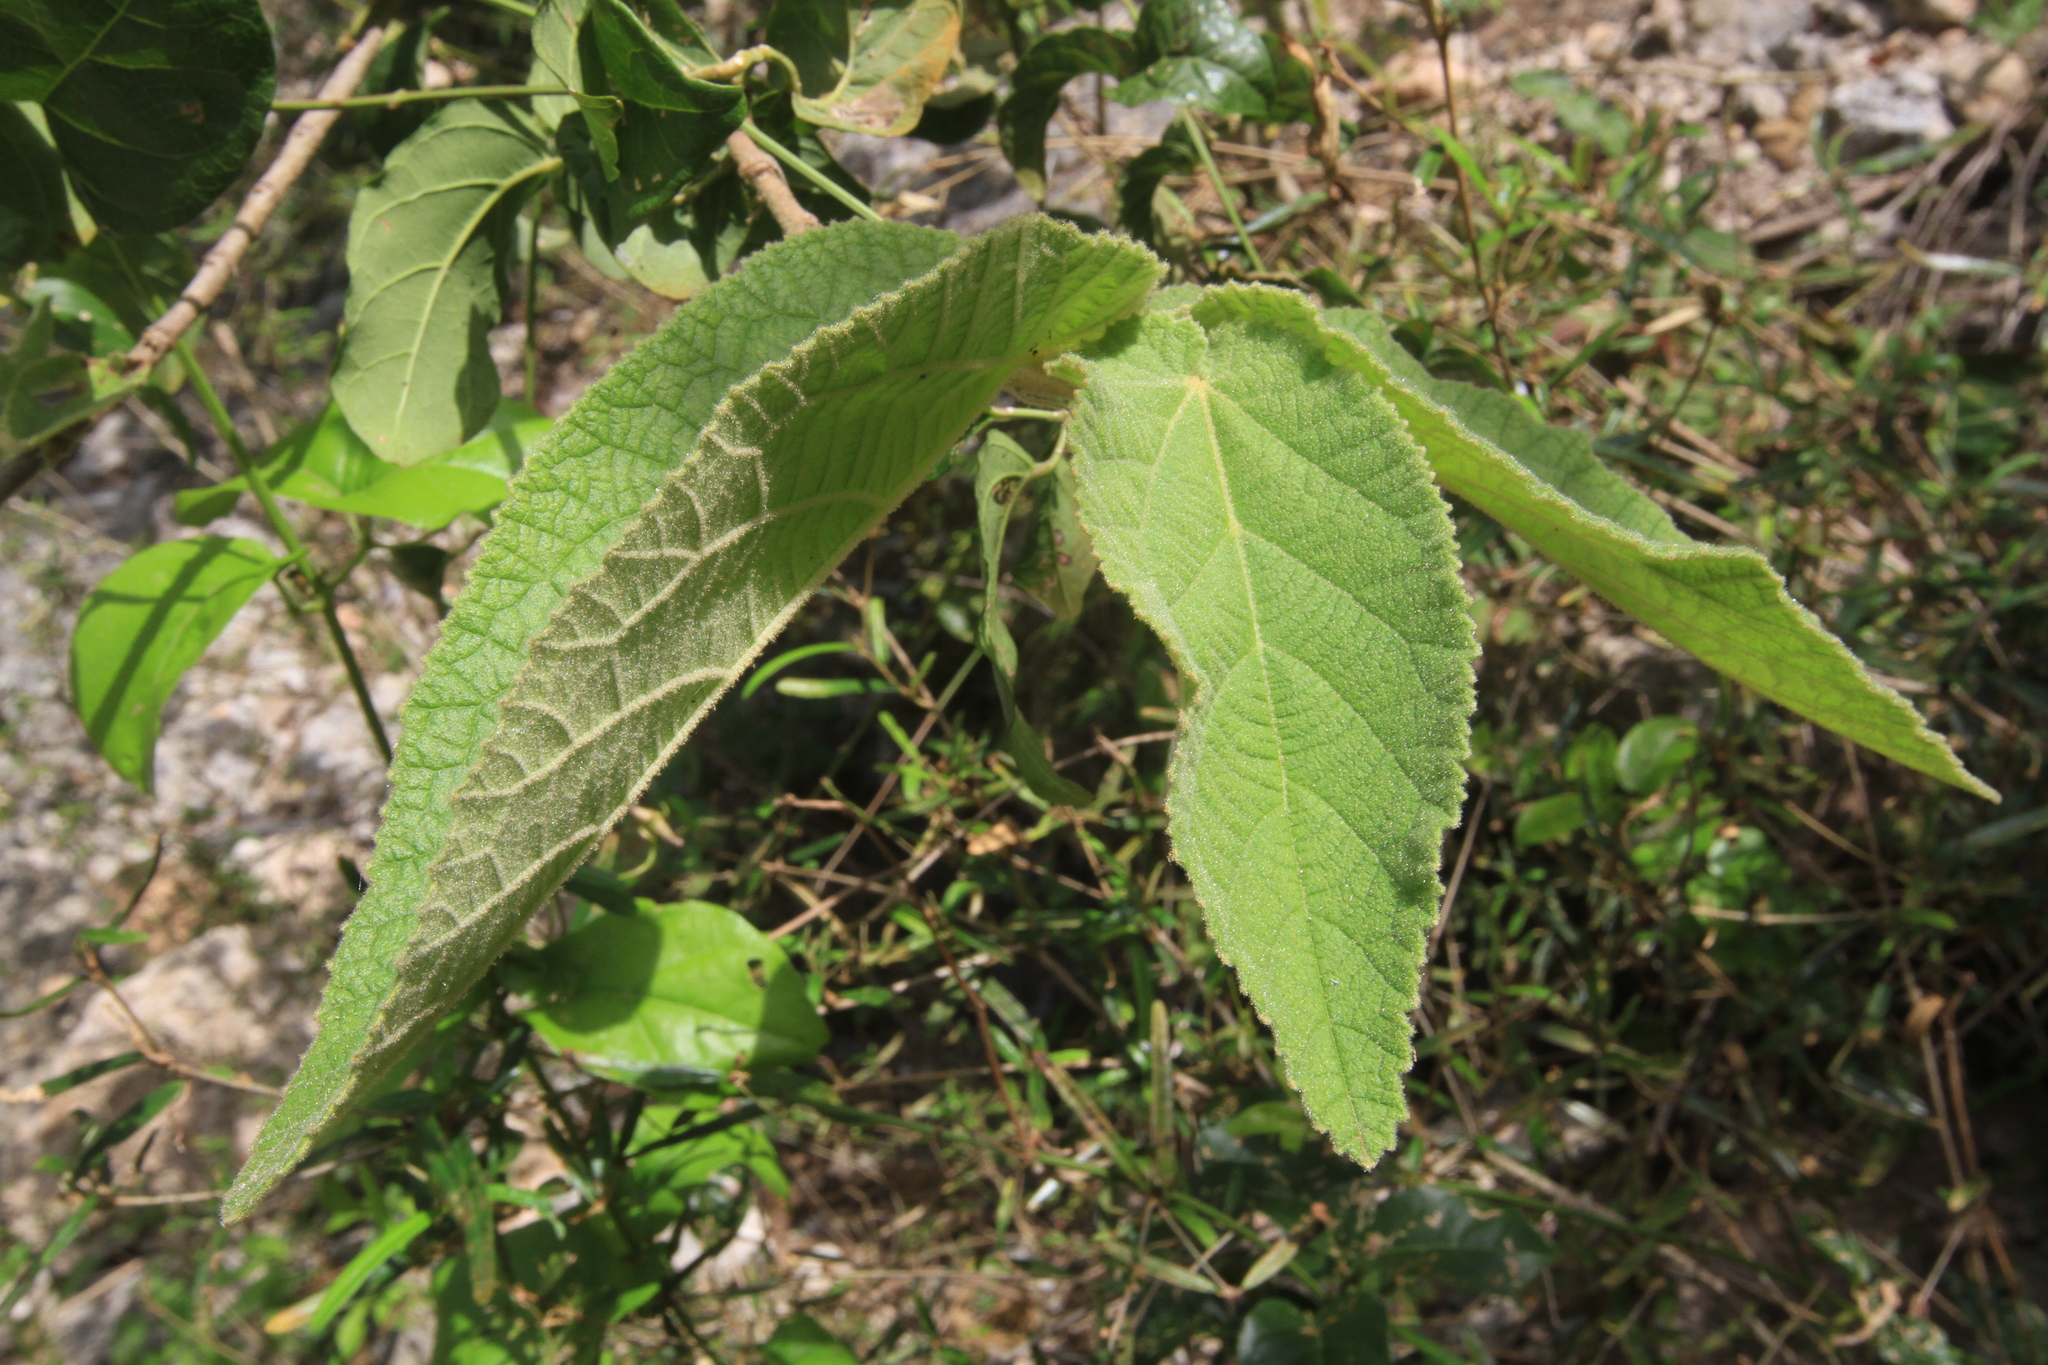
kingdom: Plantae
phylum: Tracheophyta
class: Magnoliopsida
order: Malvales
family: Malvaceae
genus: Helicteres
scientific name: Helicteres jamaicensis
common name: Cowbush
